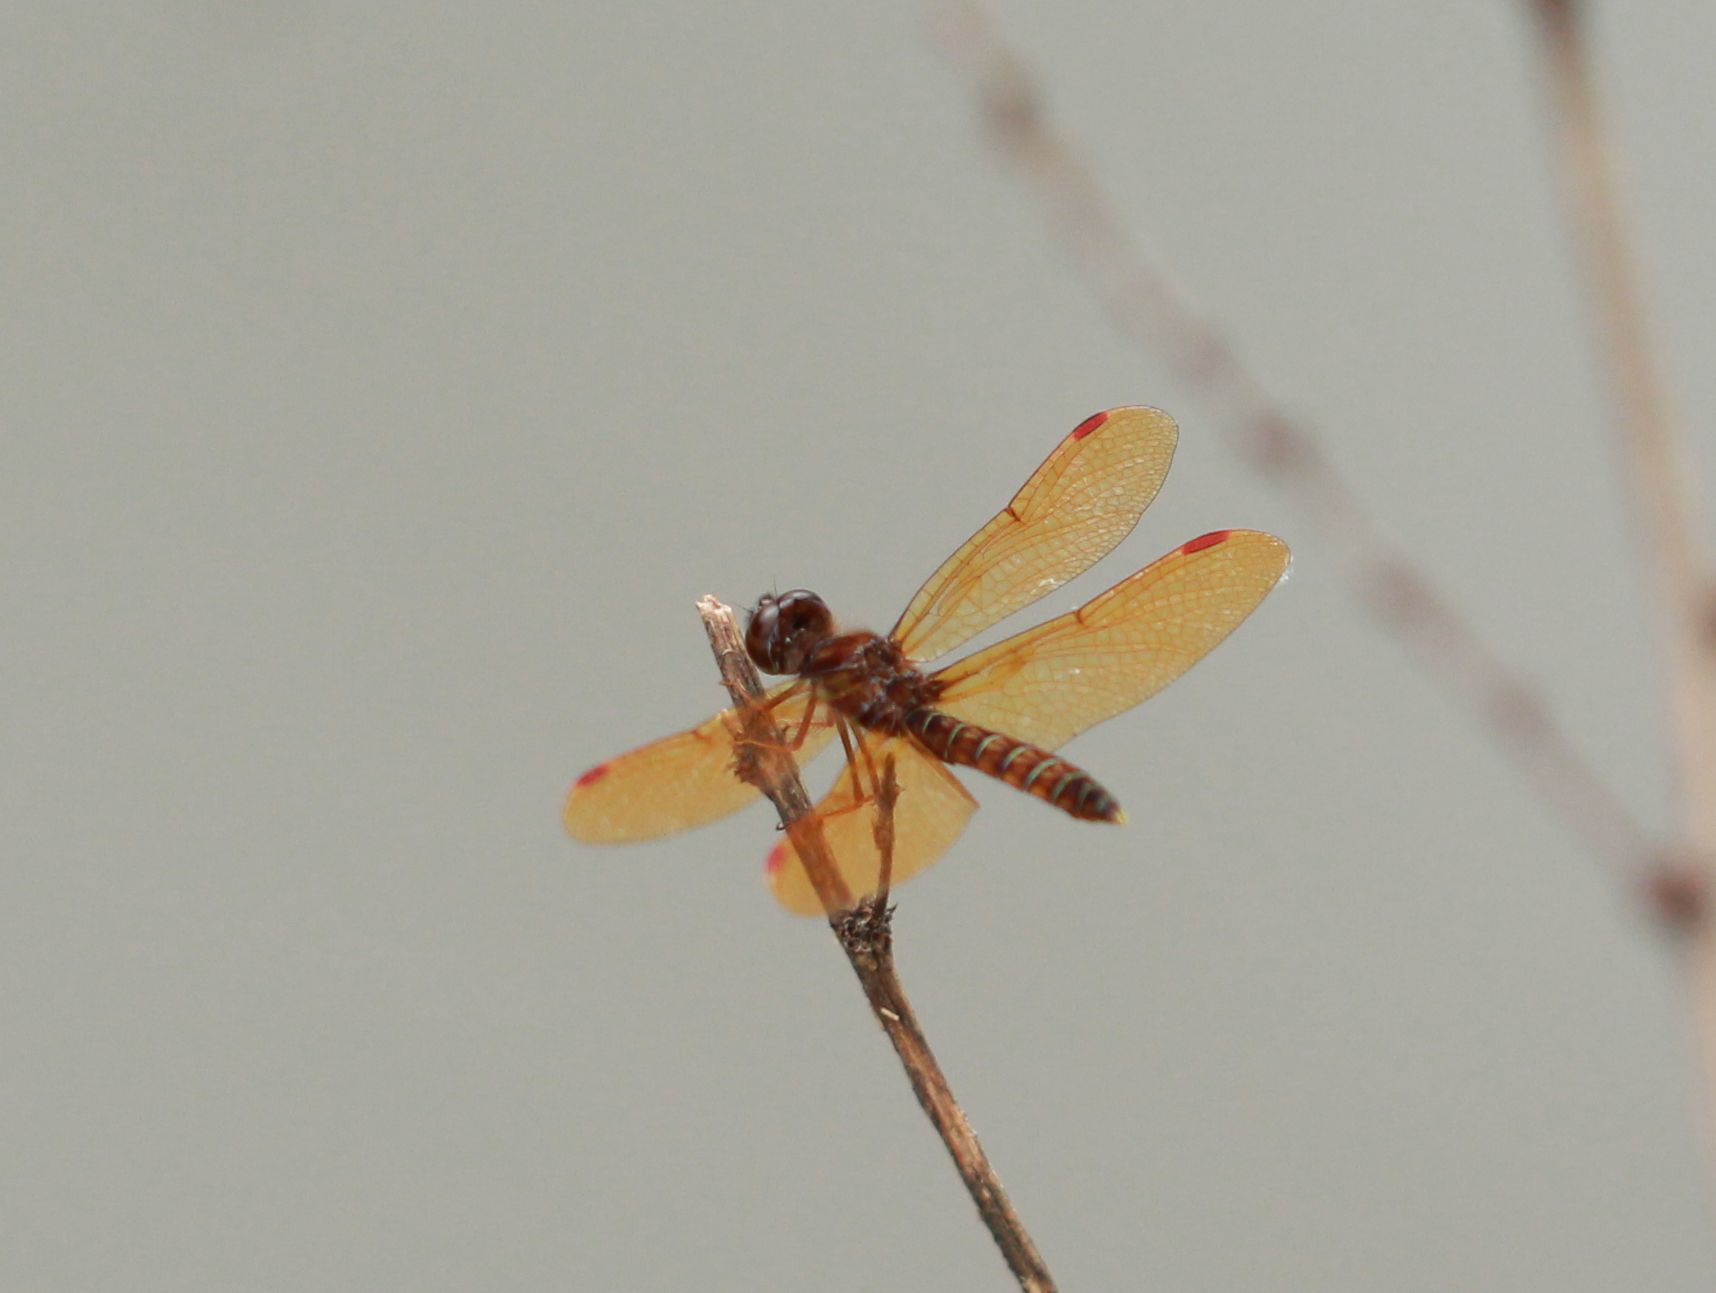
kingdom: Animalia
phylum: Arthropoda
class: Insecta
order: Odonata
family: Libellulidae
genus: Perithemis
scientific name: Perithemis tenera
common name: Eastern amberwing
